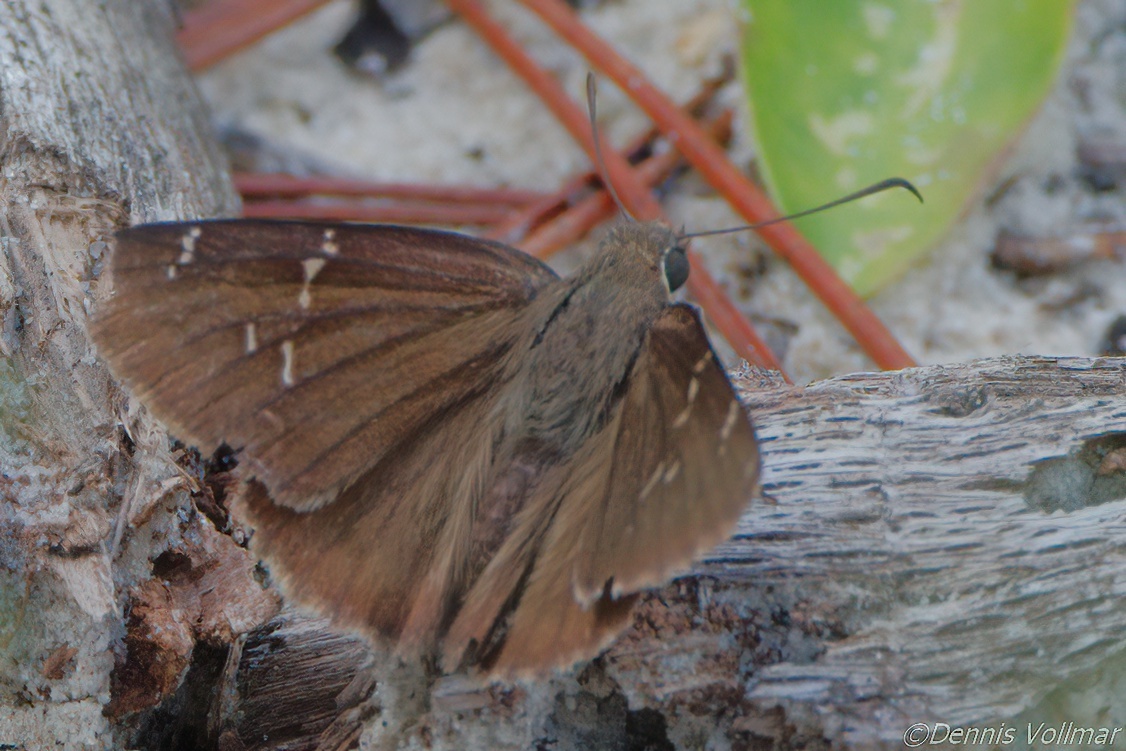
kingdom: Animalia
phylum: Arthropoda
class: Insecta
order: Lepidoptera
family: Hesperiidae
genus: Thorybes
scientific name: Thorybes mexicana
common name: Mexican cloudywing
